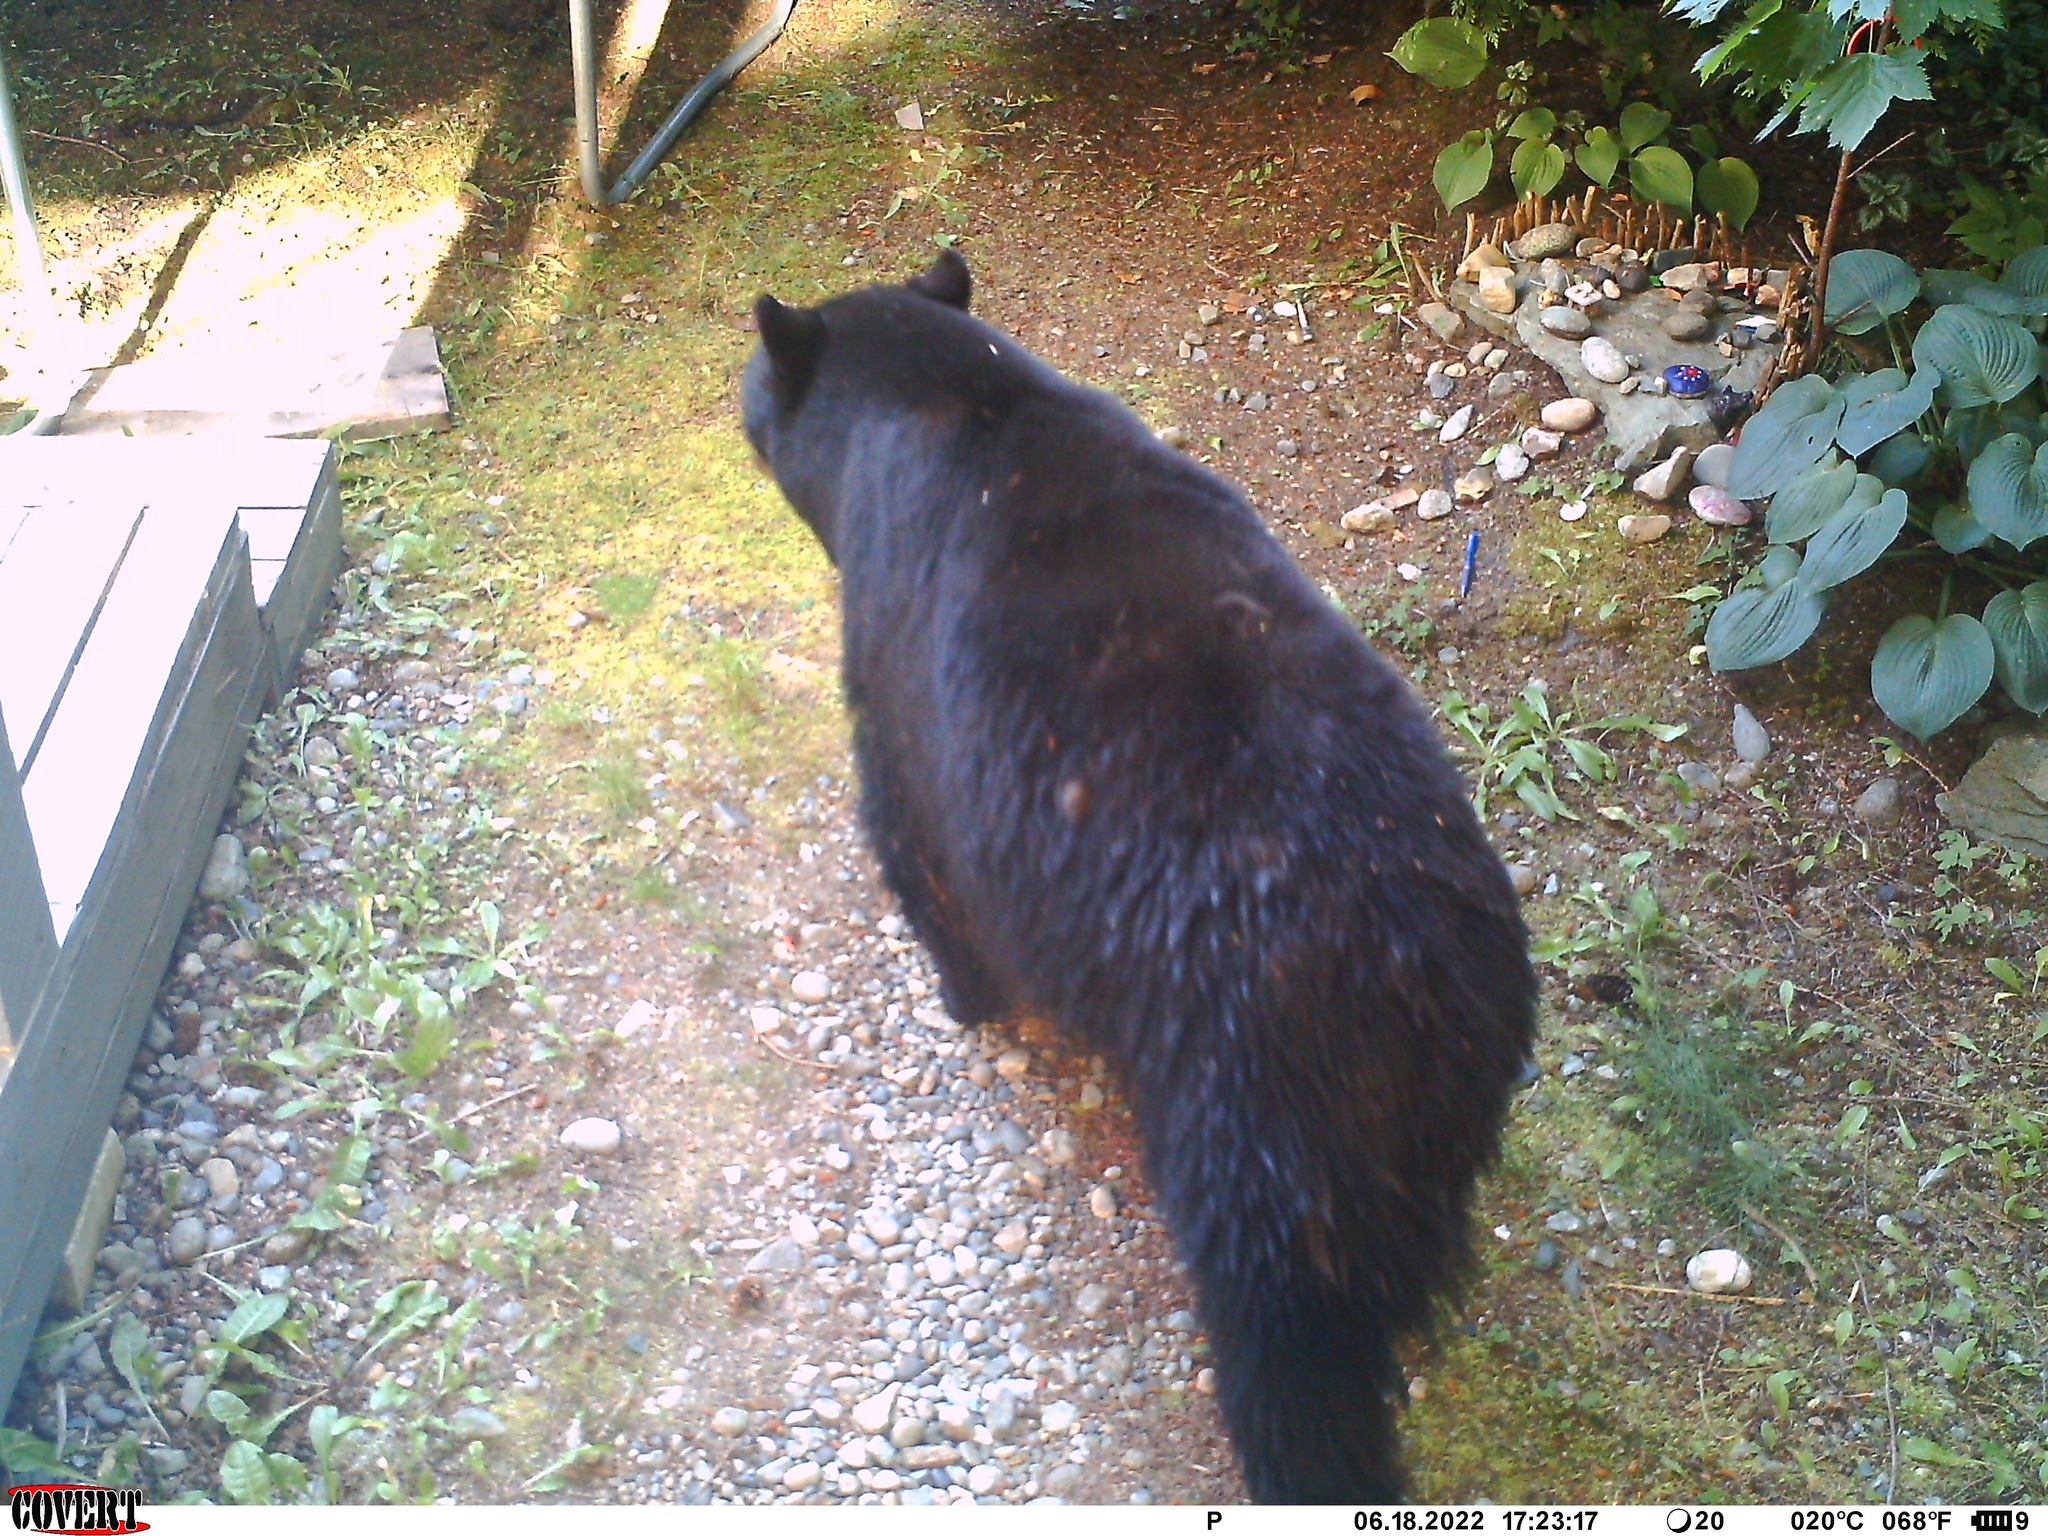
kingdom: Animalia
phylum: Chordata
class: Mammalia
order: Carnivora
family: Ursidae
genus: Ursus
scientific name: Ursus americanus
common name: American black bear
